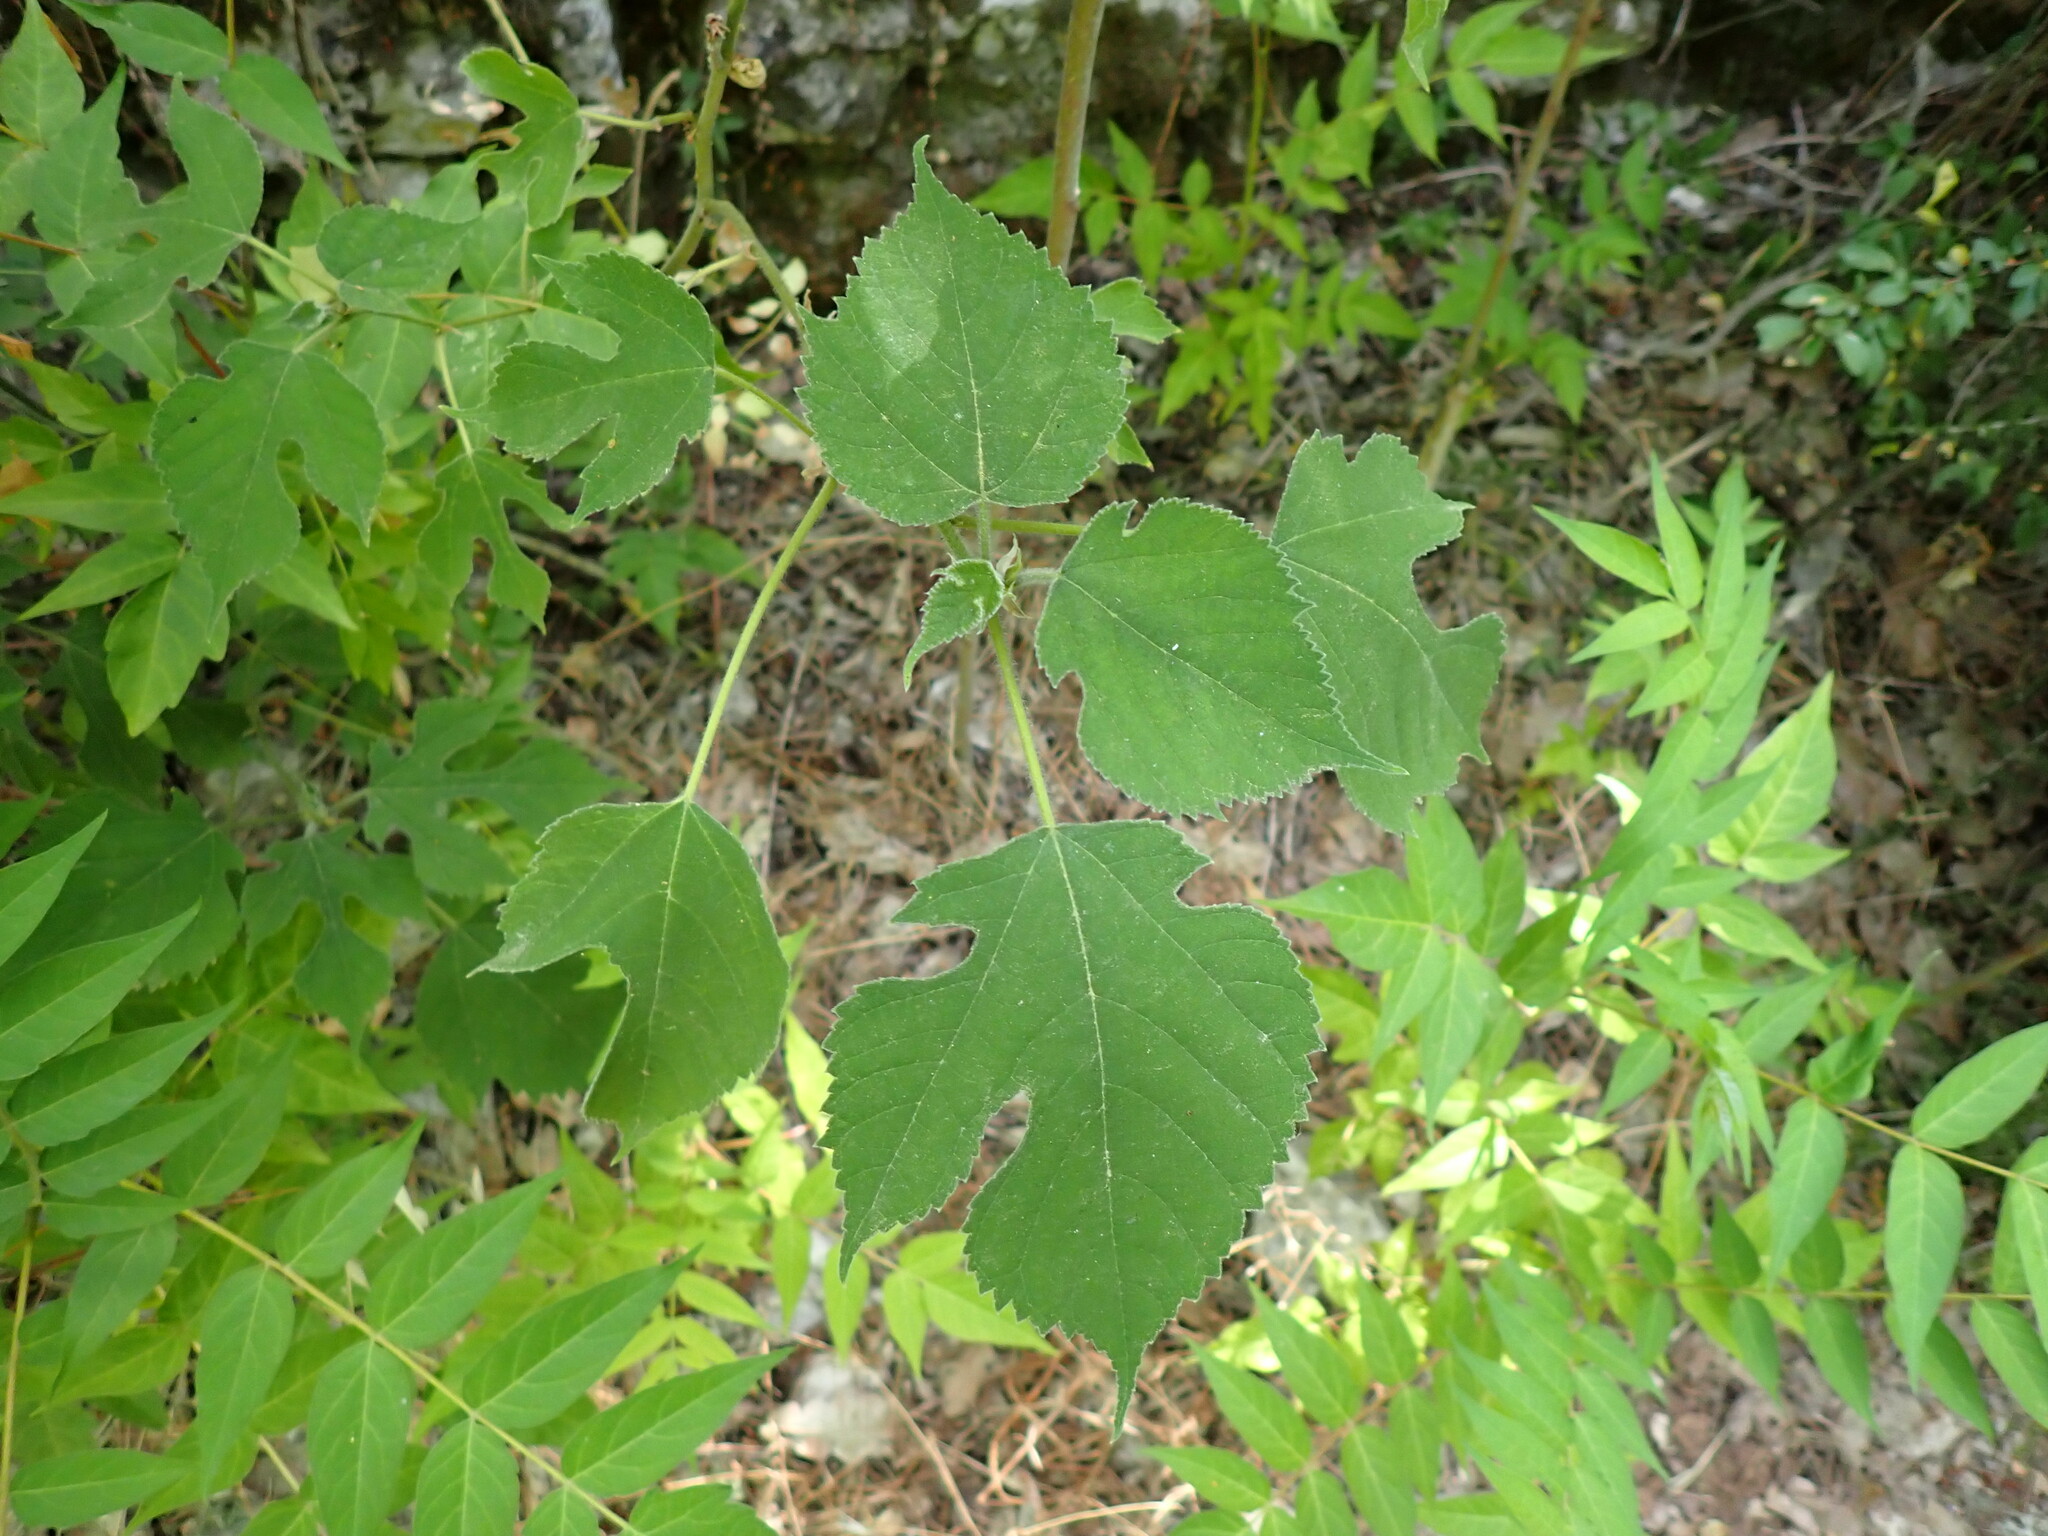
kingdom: Plantae
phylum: Tracheophyta
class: Magnoliopsida
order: Rosales
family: Moraceae
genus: Broussonetia
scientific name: Broussonetia papyrifera
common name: Paper mulberry
